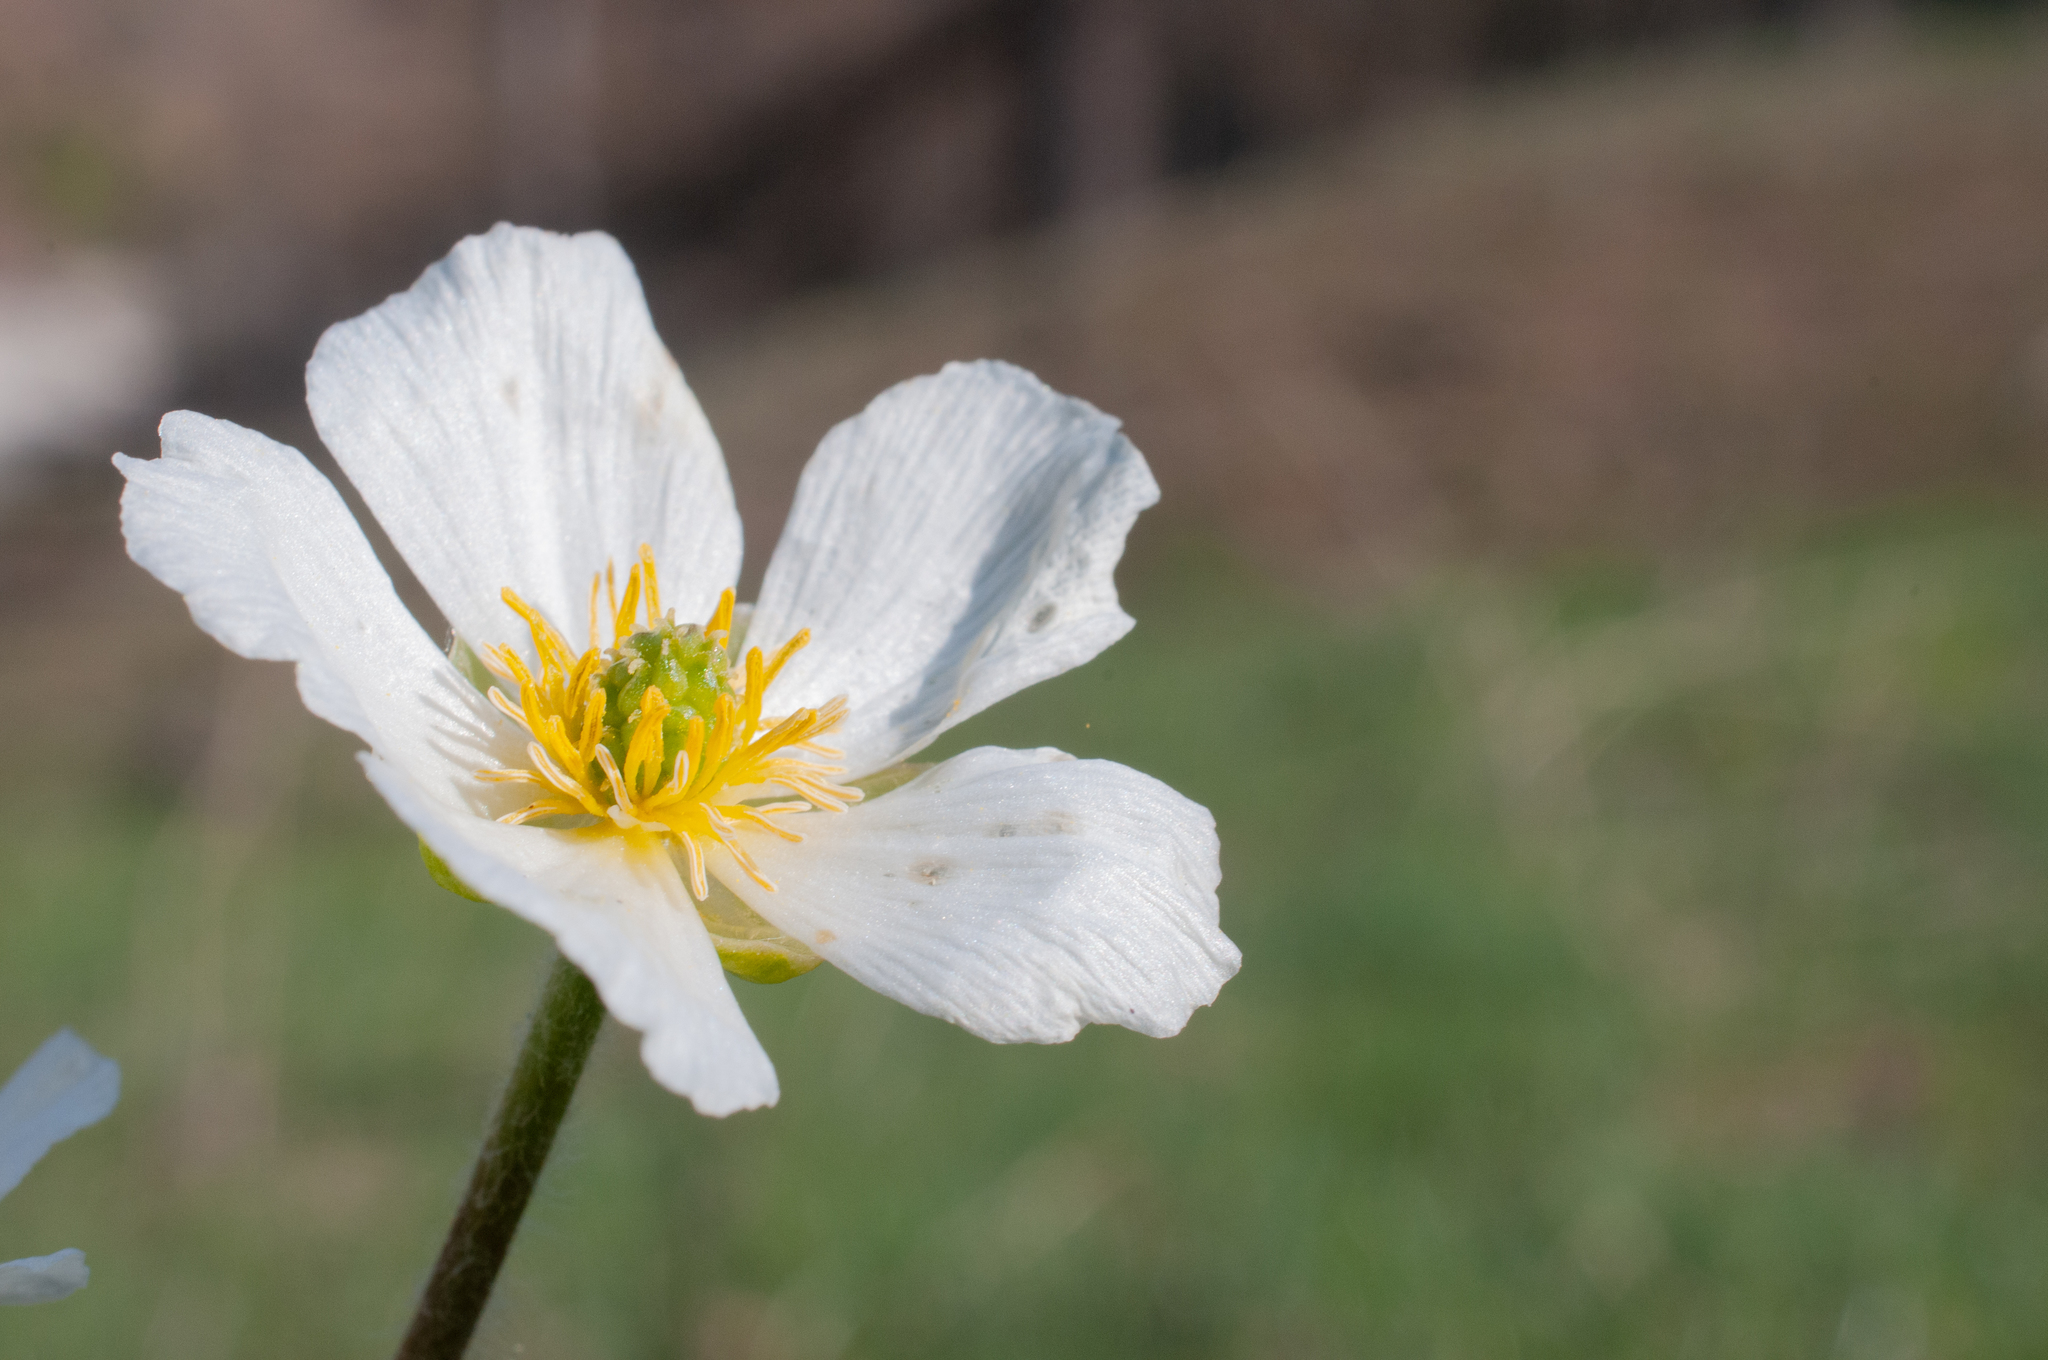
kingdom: Plantae
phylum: Tracheophyta
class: Magnoliopsida
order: Ranunculales
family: Ranunculaceae
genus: Ranunculus
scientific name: Ranunculus kuepferi
